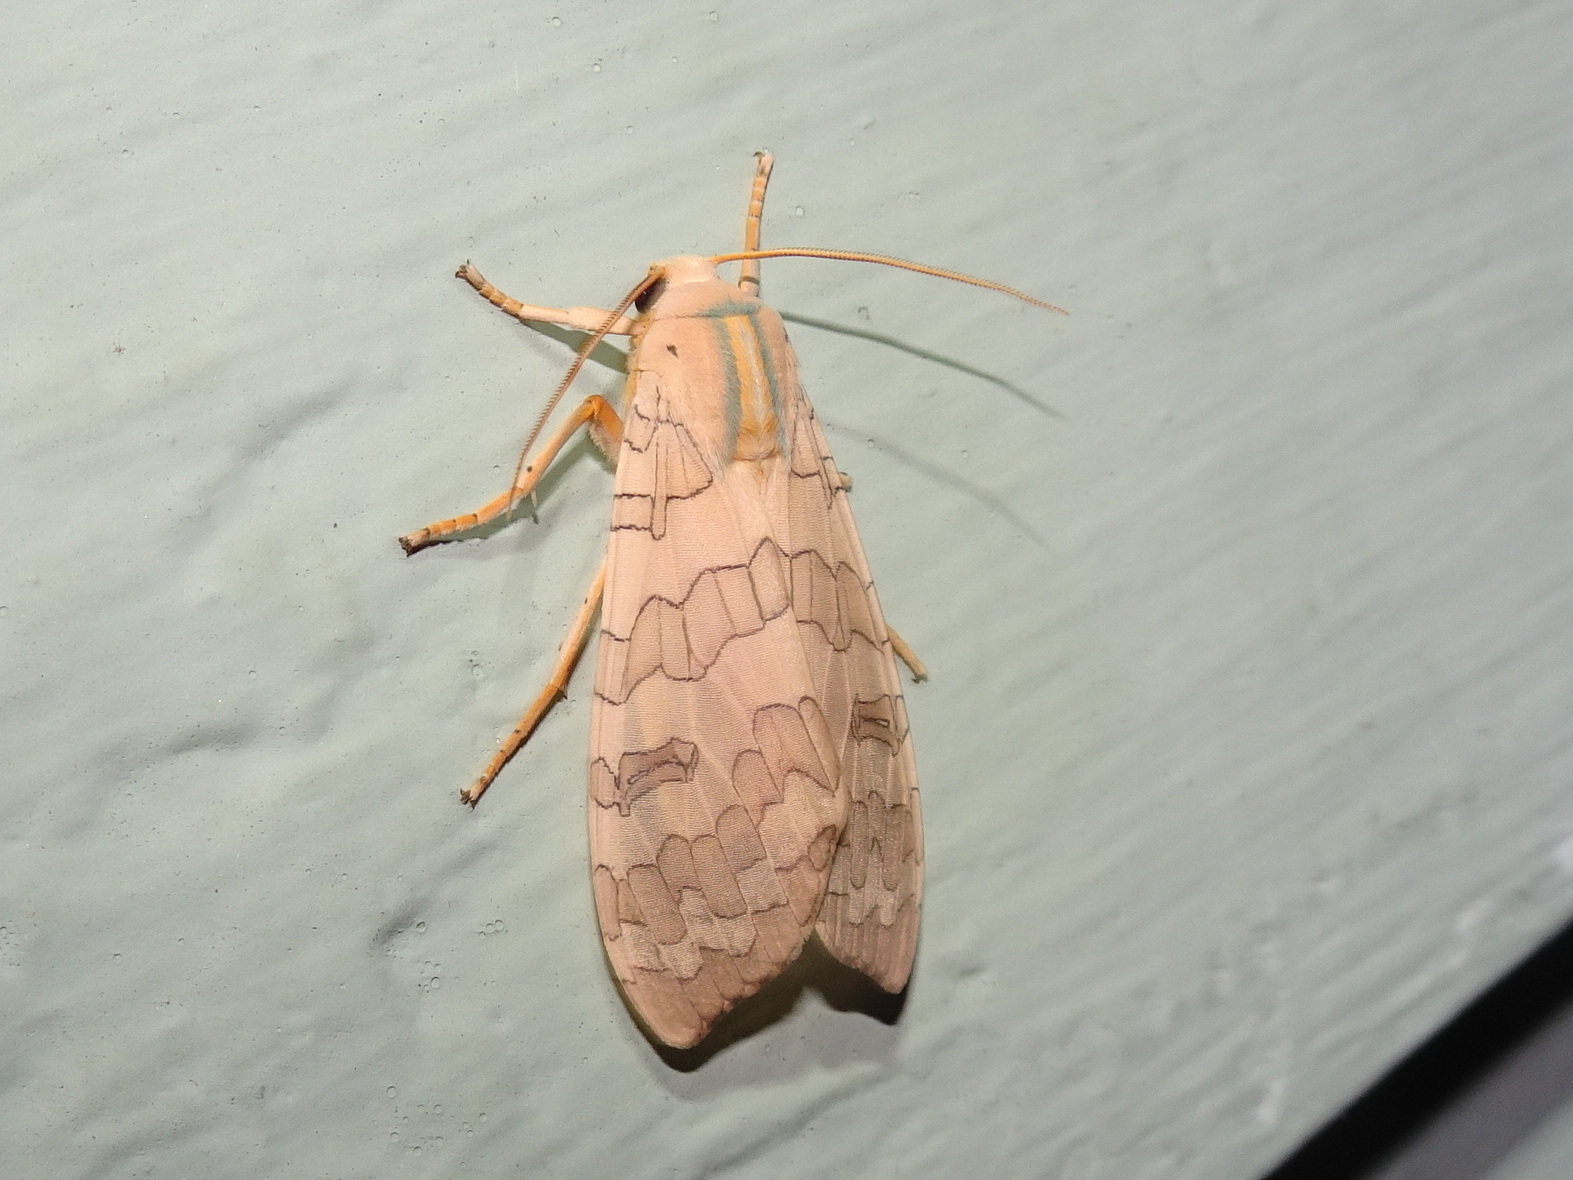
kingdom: Animalia
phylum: Arthropoda
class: Insecta
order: Lepidoptera
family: Erebidae
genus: Halysidota
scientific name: Halysidota
